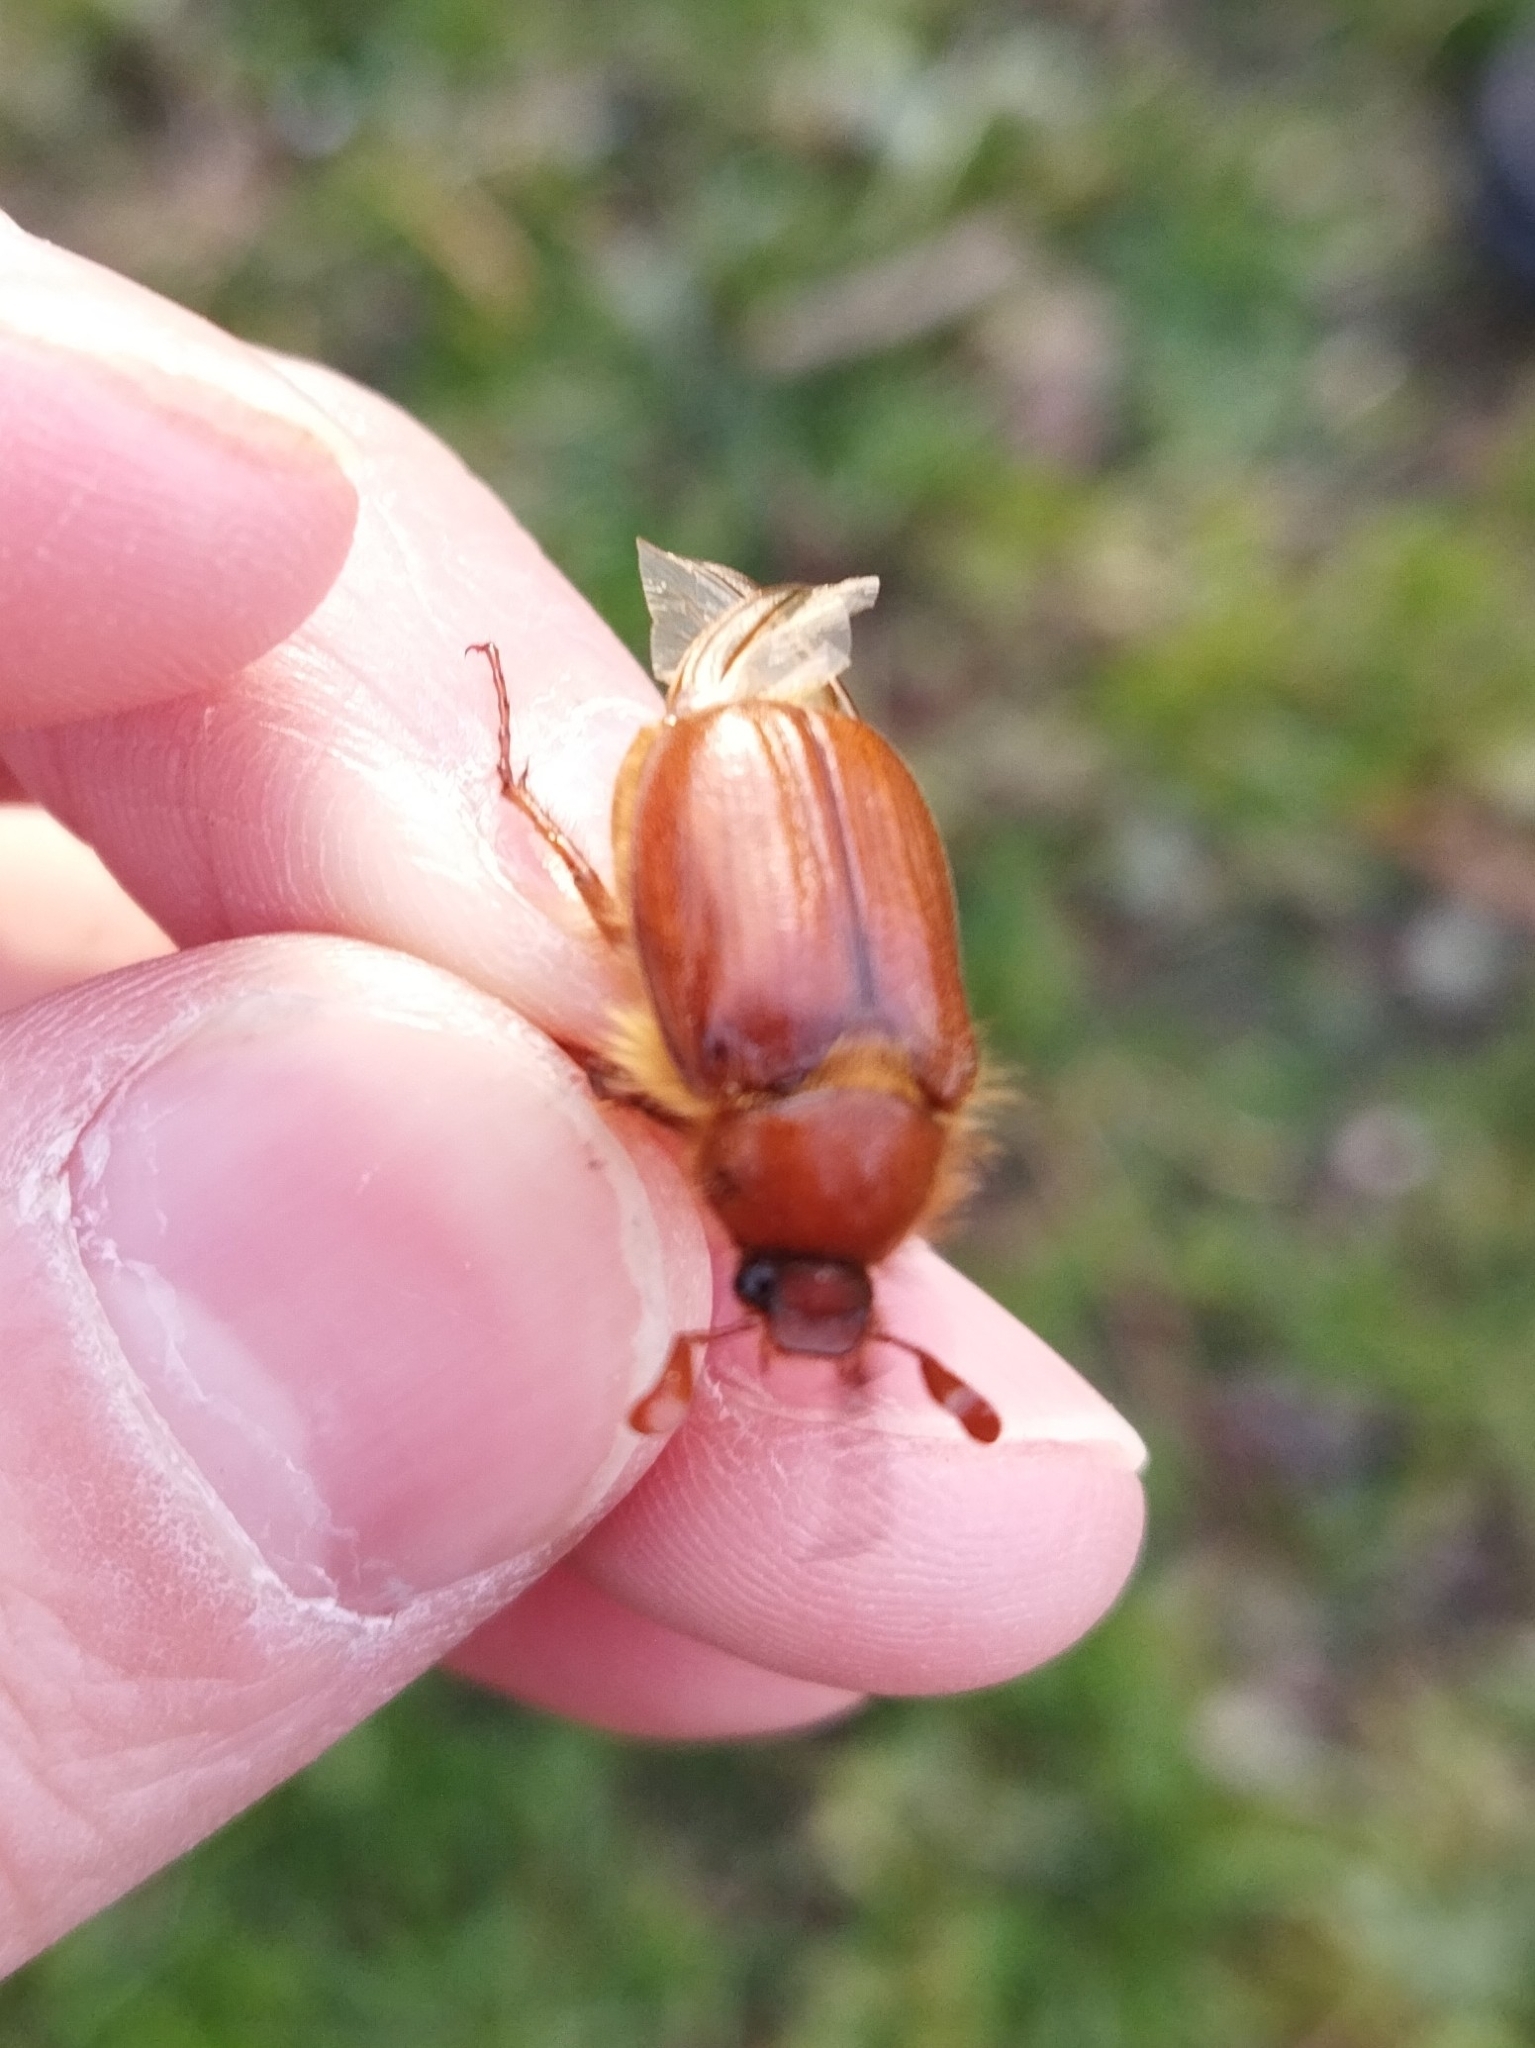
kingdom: Animalia
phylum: Arthropoda
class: Insecta
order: Coleoptera
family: Scarabaeidae
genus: Holochelus
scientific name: Holochelus aequinoctialis
